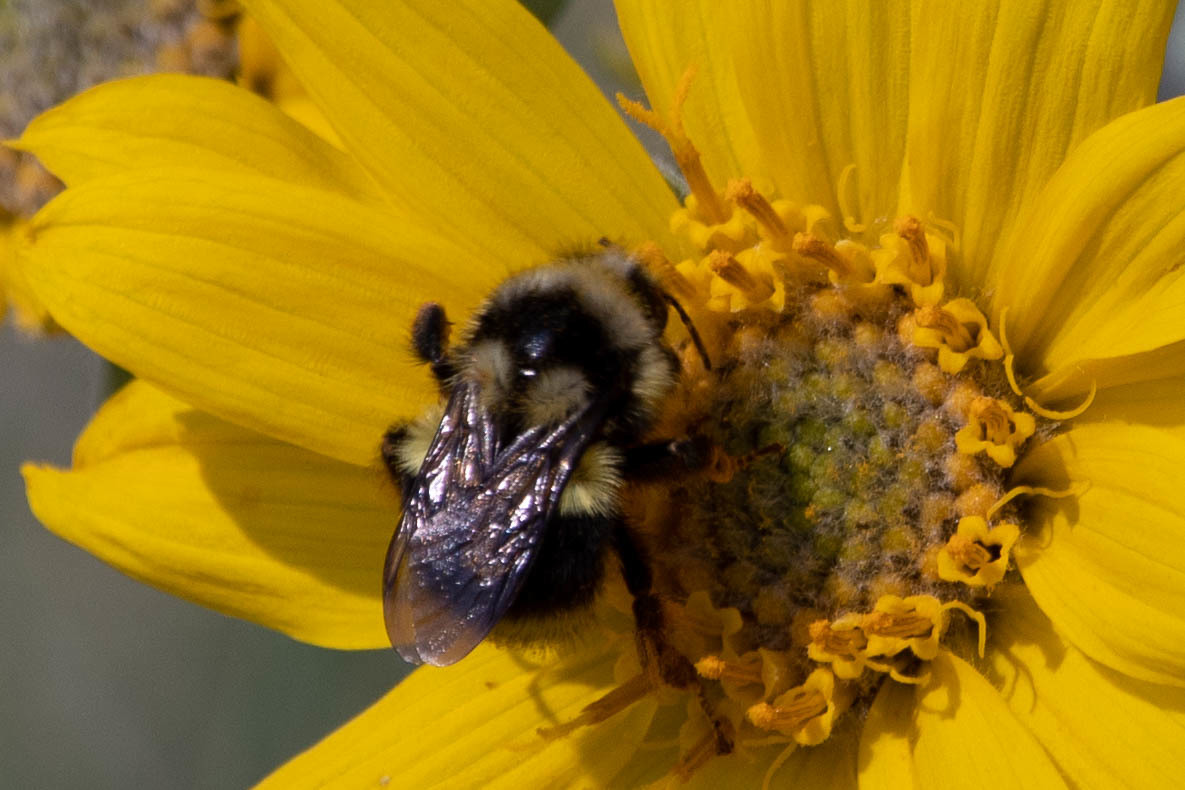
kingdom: Animalia
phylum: Arthropoda
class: Insecta
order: Hymenoptera
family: Apidae
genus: Bombus
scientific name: Bombus vancouverensis
